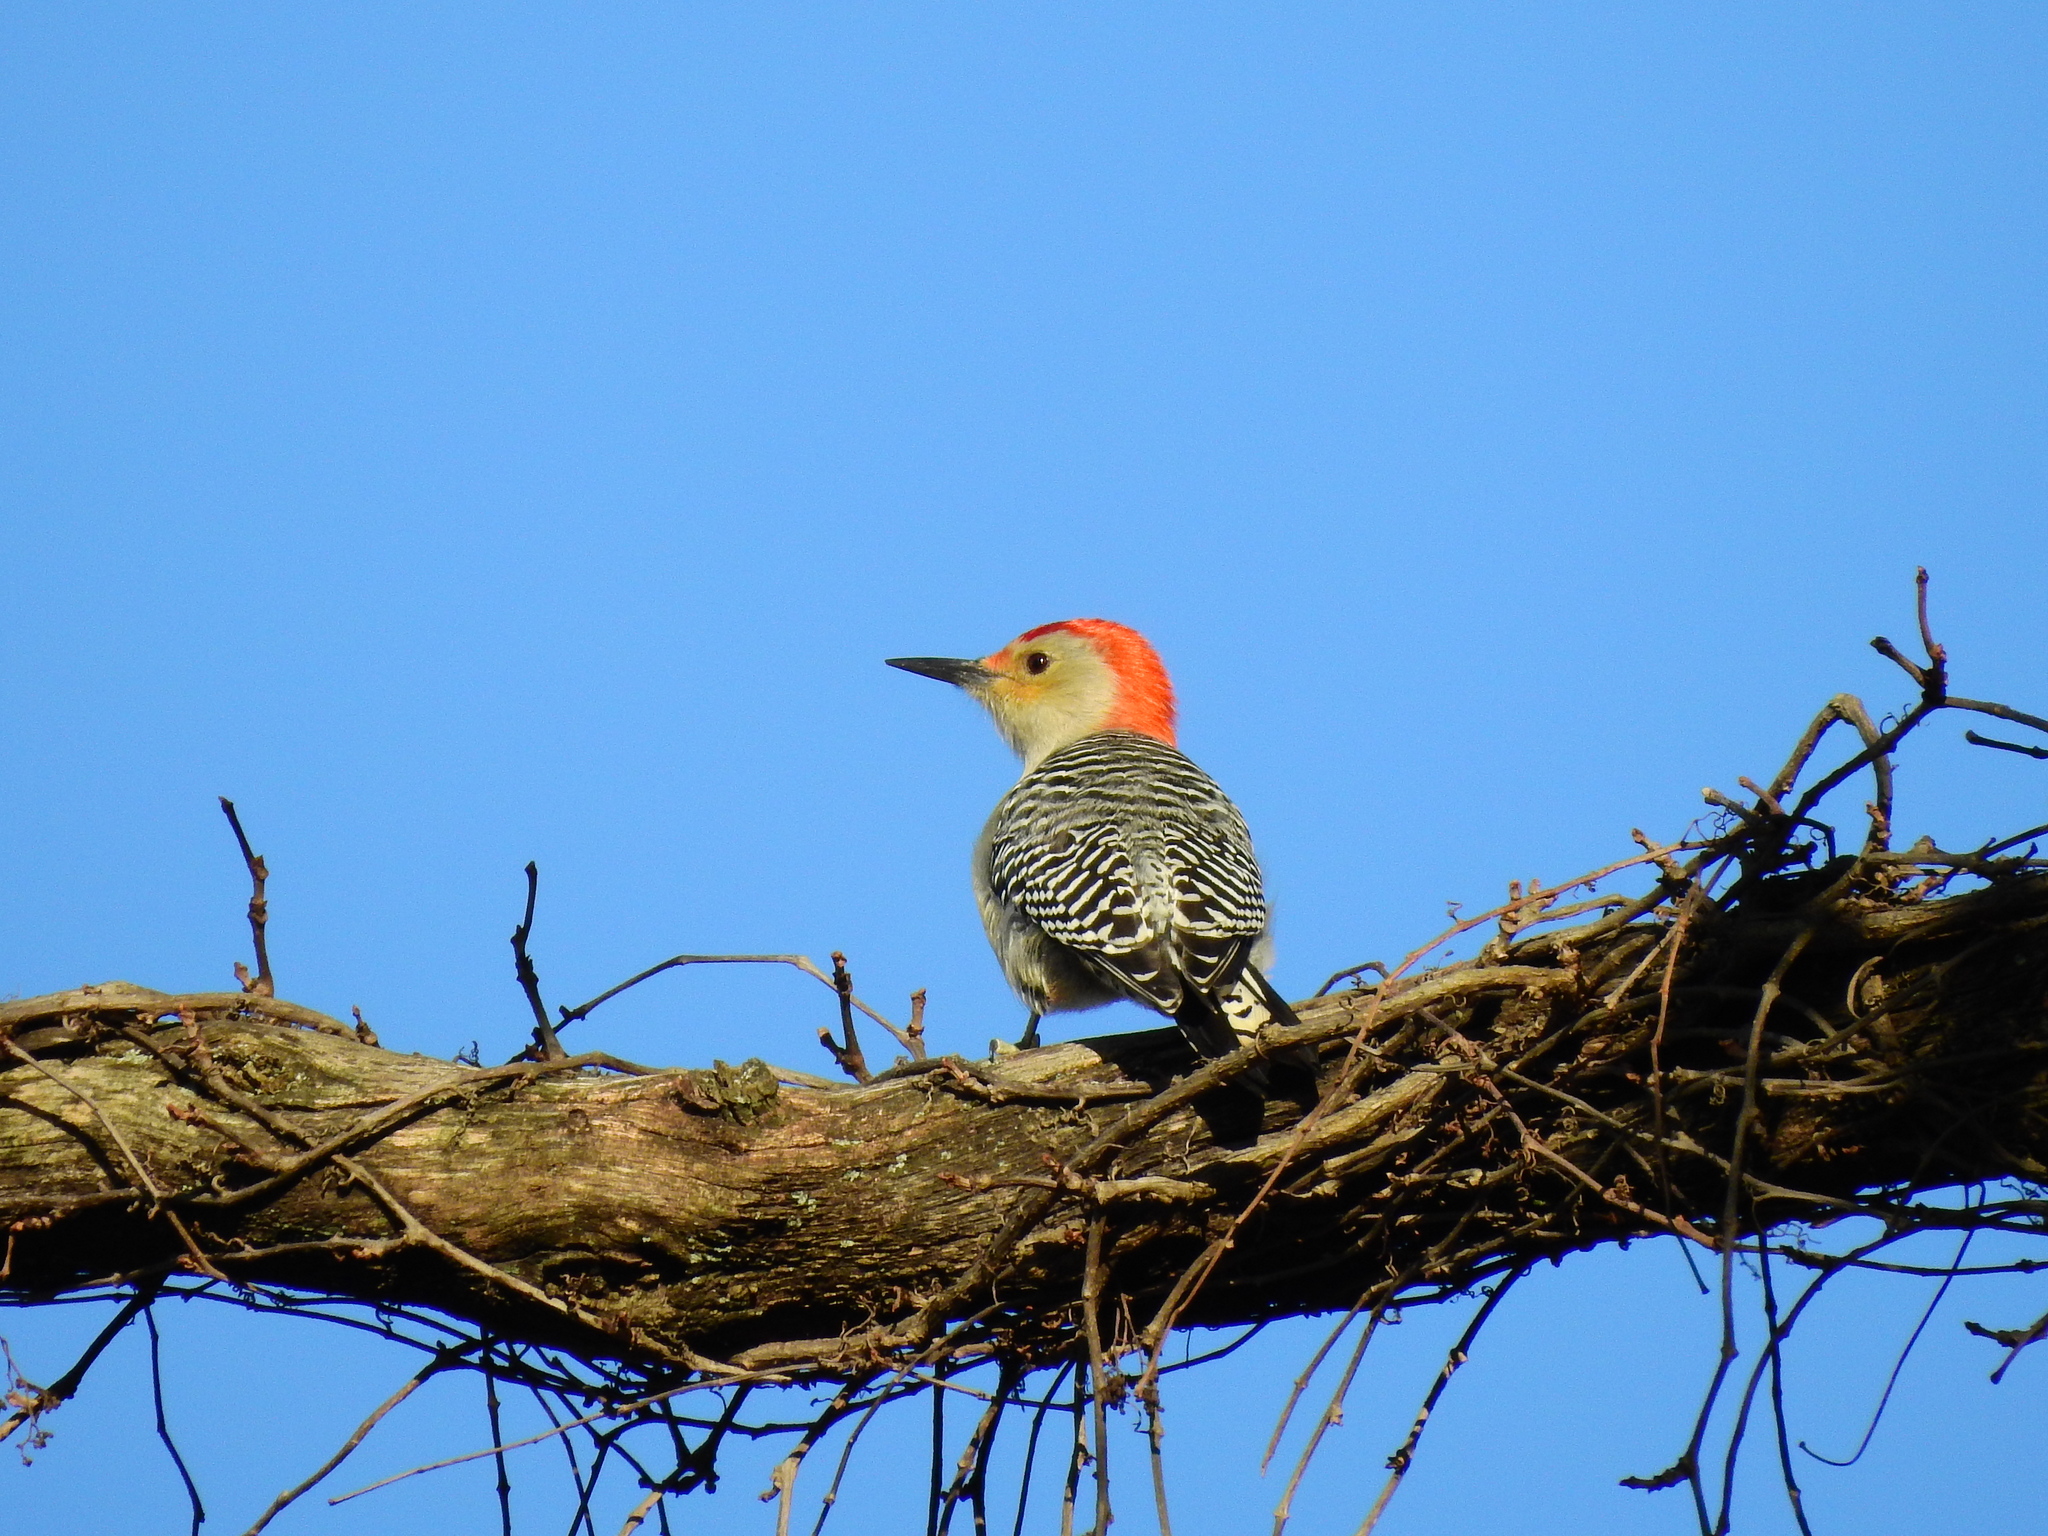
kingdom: Animalia
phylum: Chordata
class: Aves
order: Piciformes
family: Picidae
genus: Melanerpes
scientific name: Melanerpes carolinus
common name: Red-bellied woodpecker
